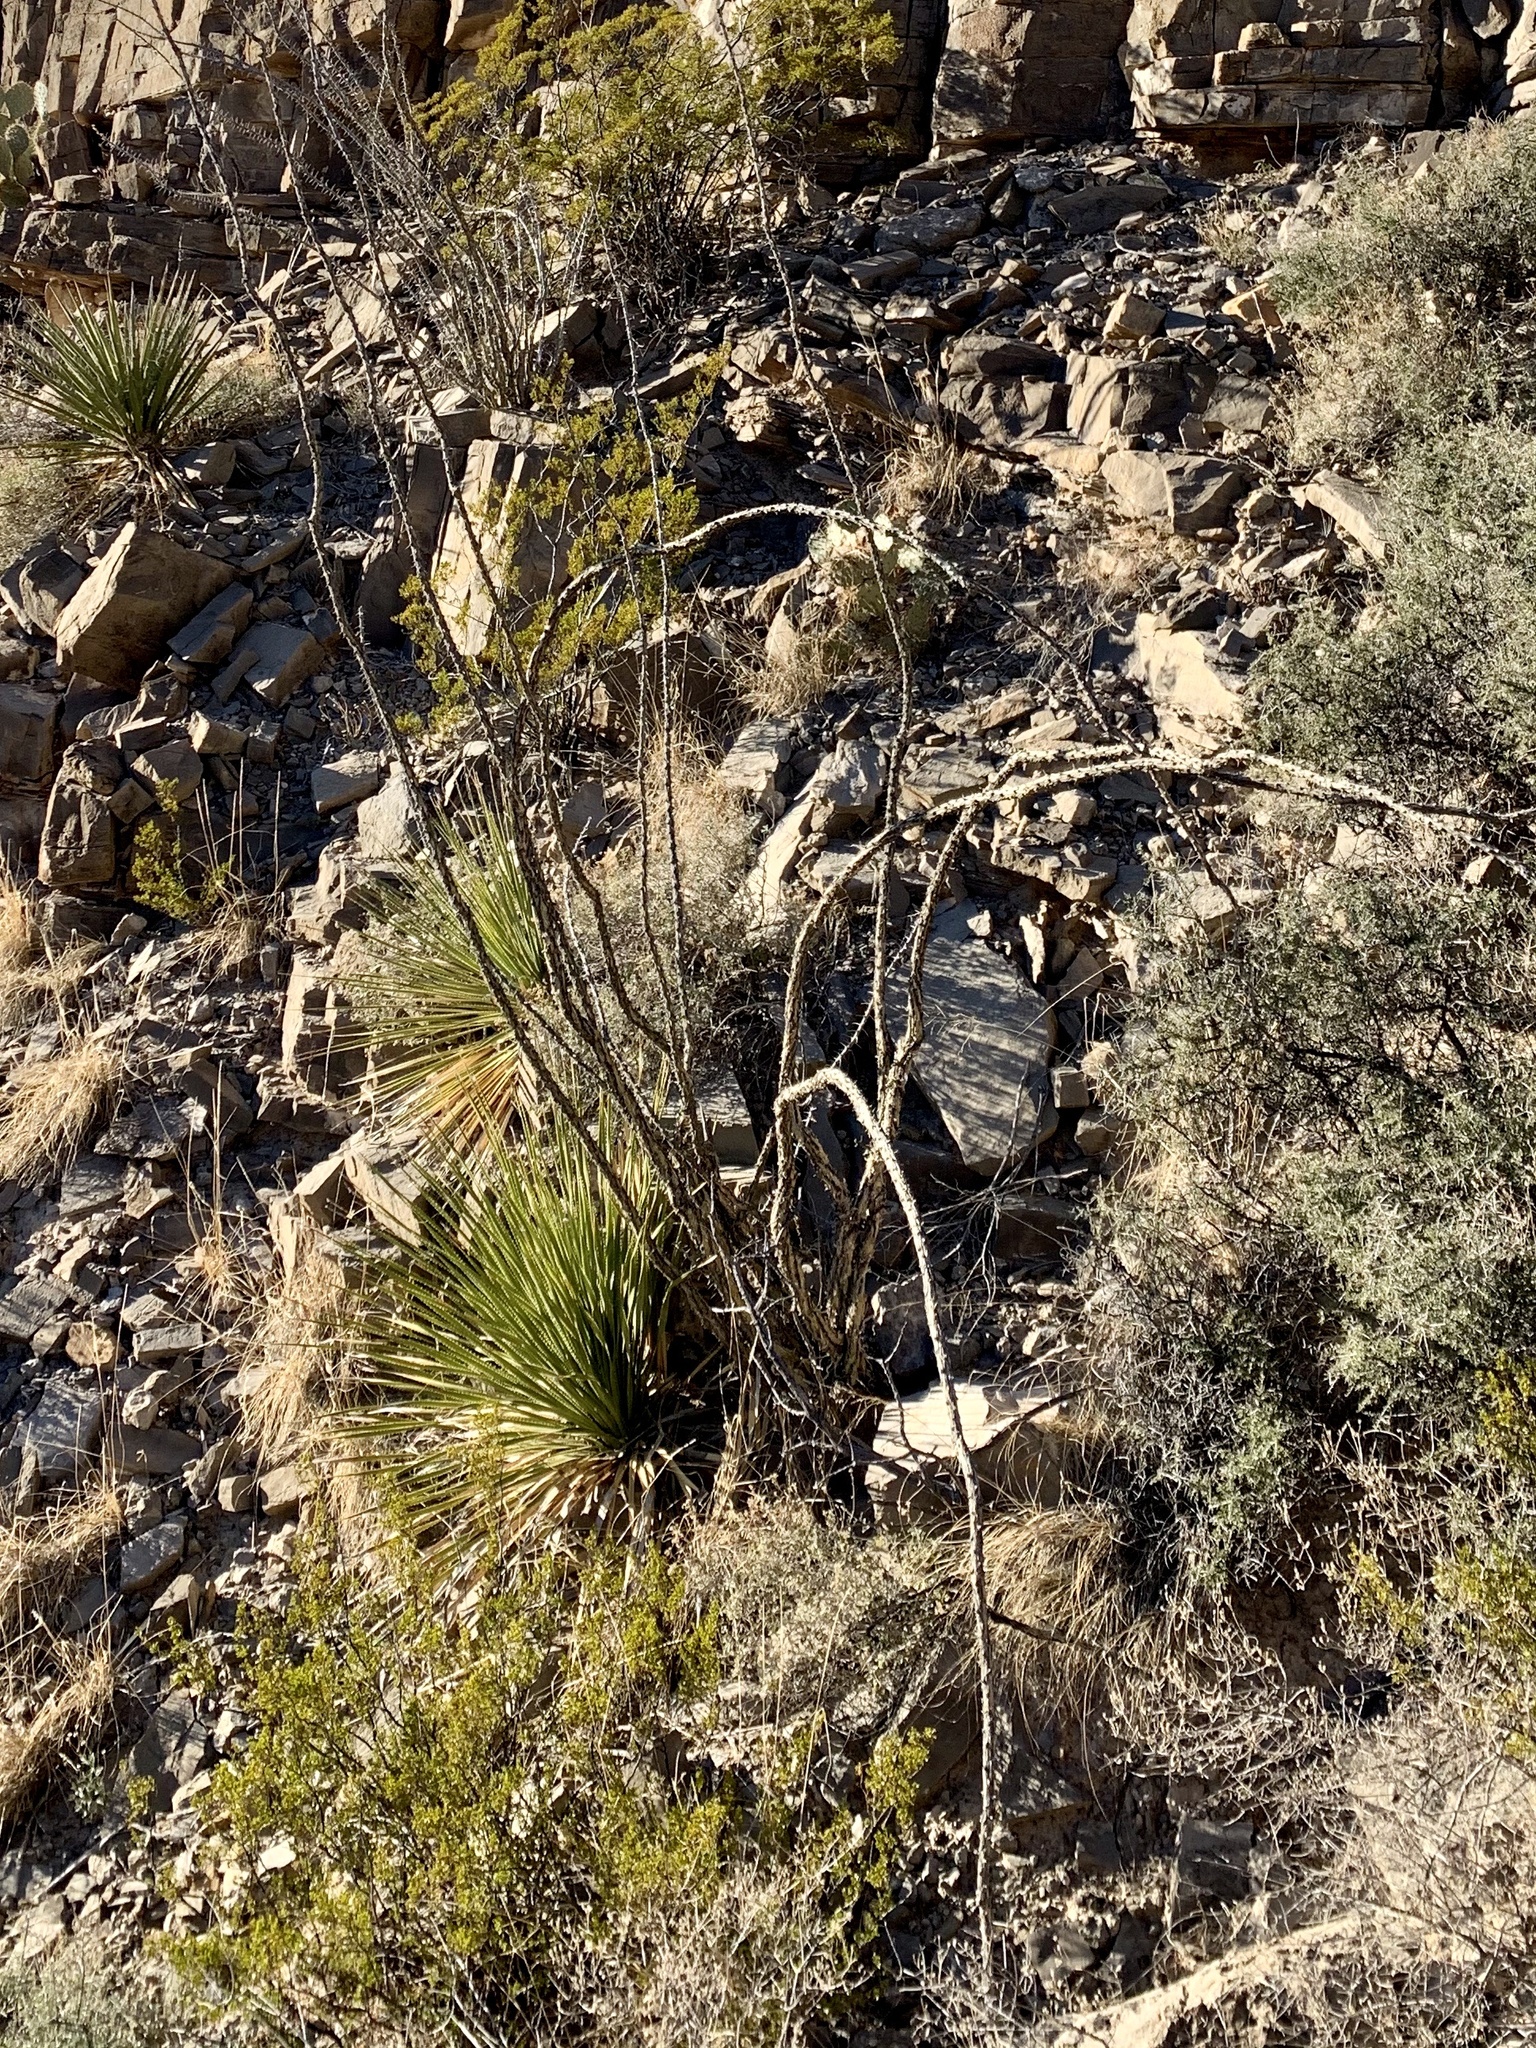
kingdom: Plantae
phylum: Tracheophyta
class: Magnoliopsida
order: Ericales
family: Fouquieriaceae
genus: Fouquieria
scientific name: Fouquieria splendens
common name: Vine-cactus
